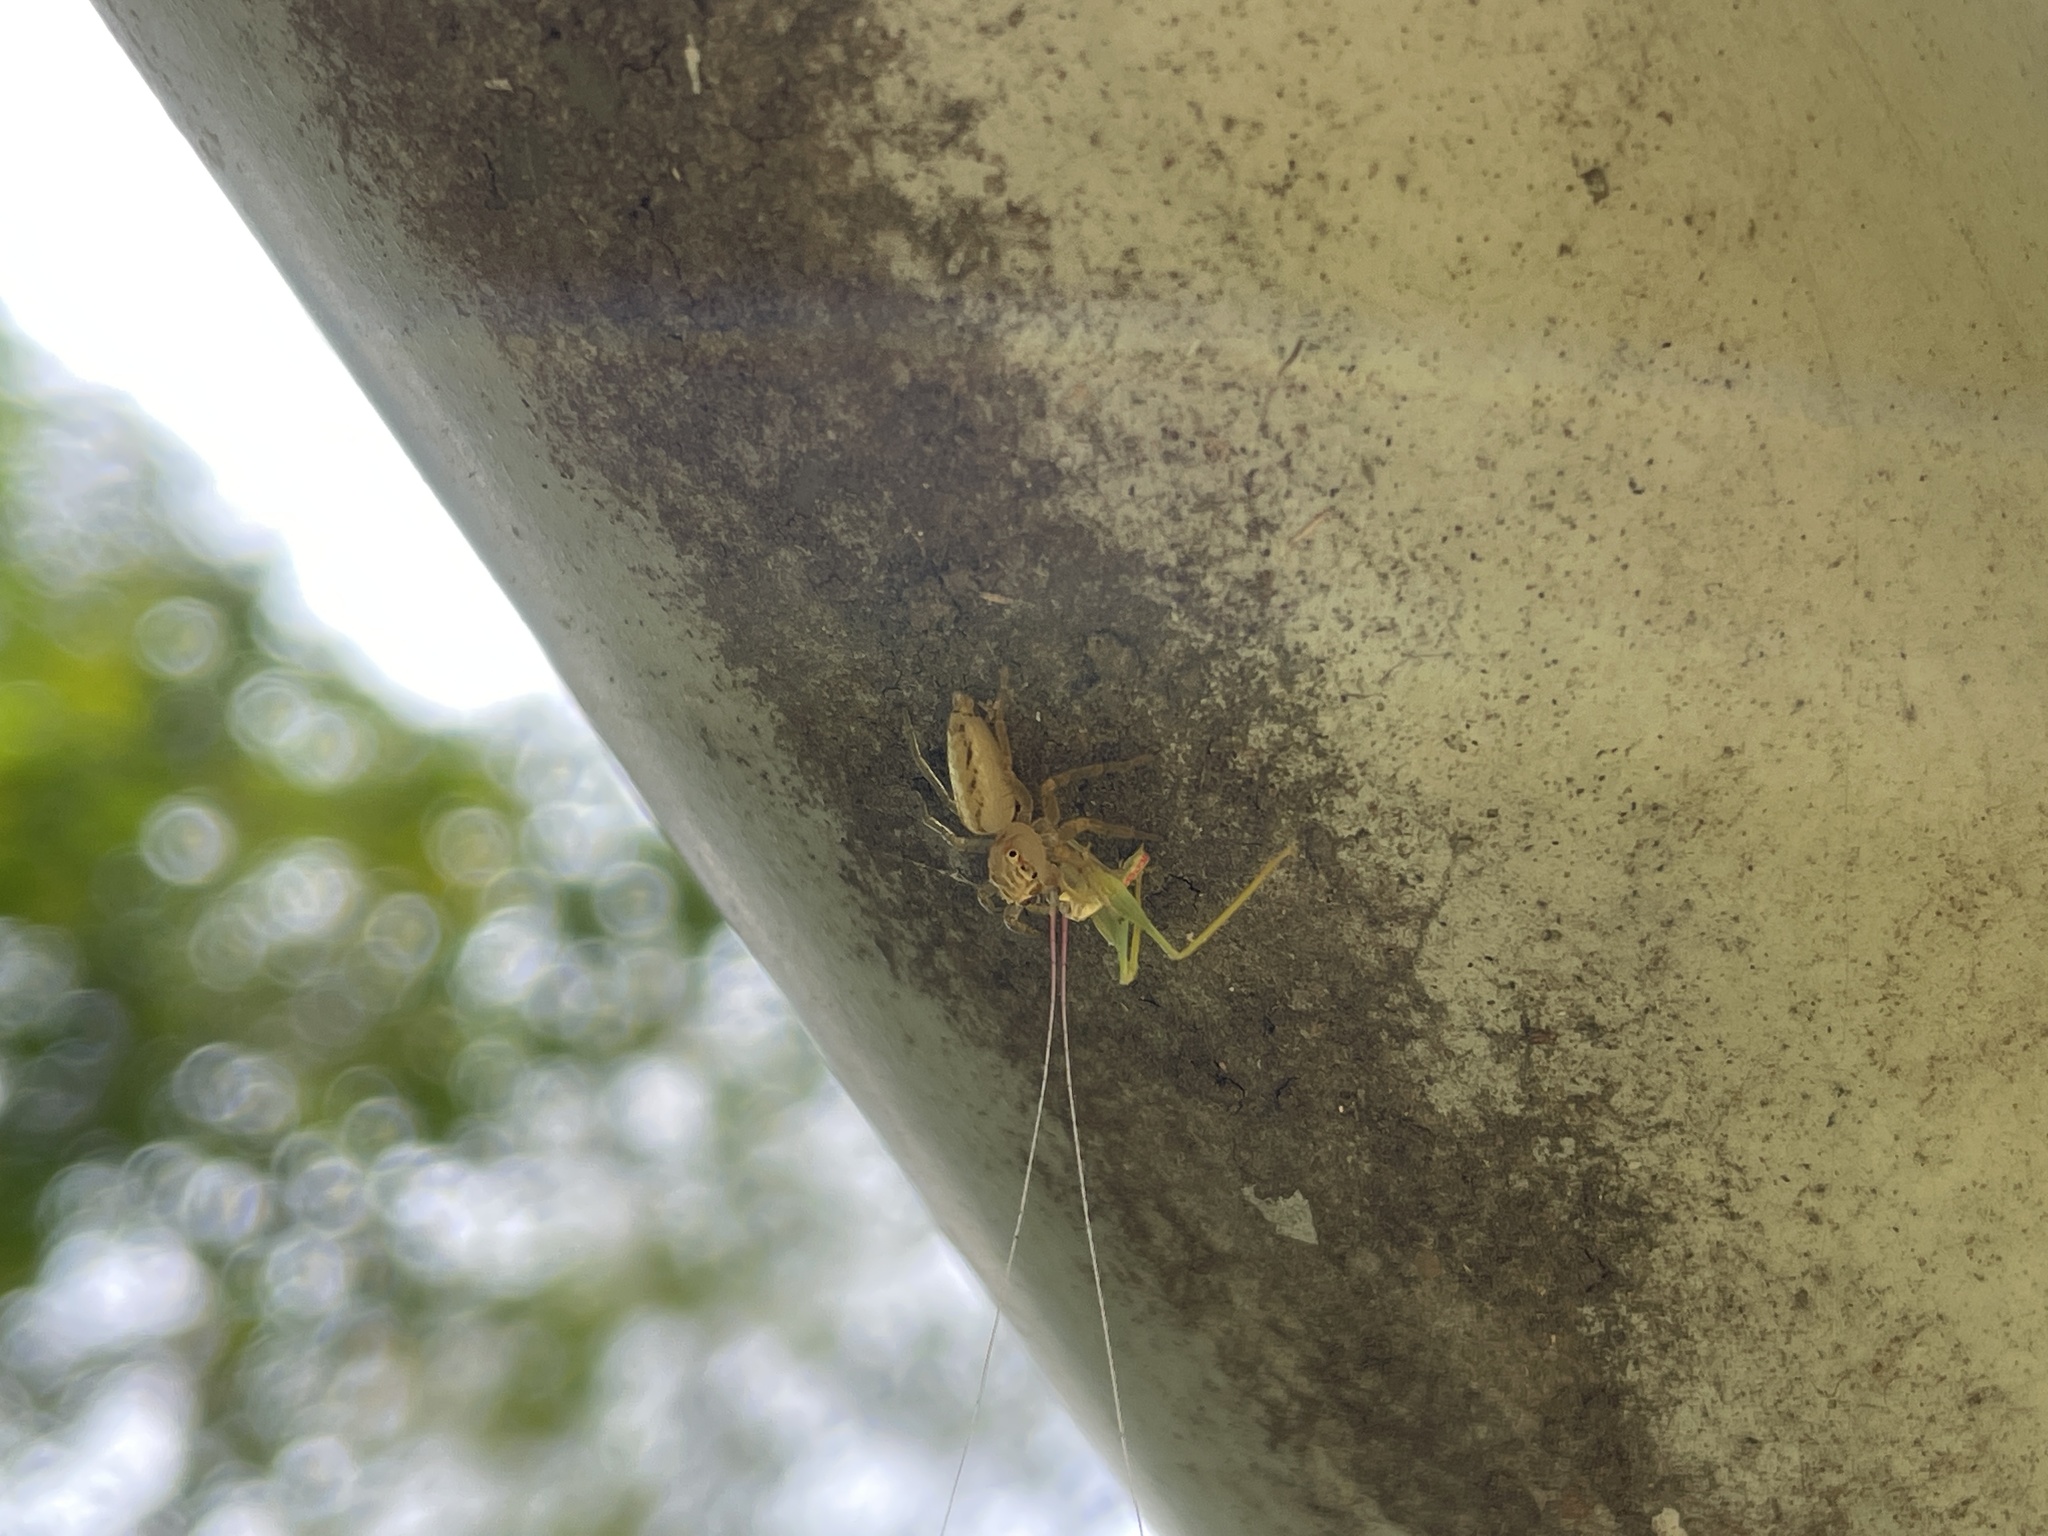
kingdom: Animalia
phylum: Arthropoda
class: Arachnida
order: Araneae
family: Salticidae
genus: Telamonia
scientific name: Telamonia caprina
